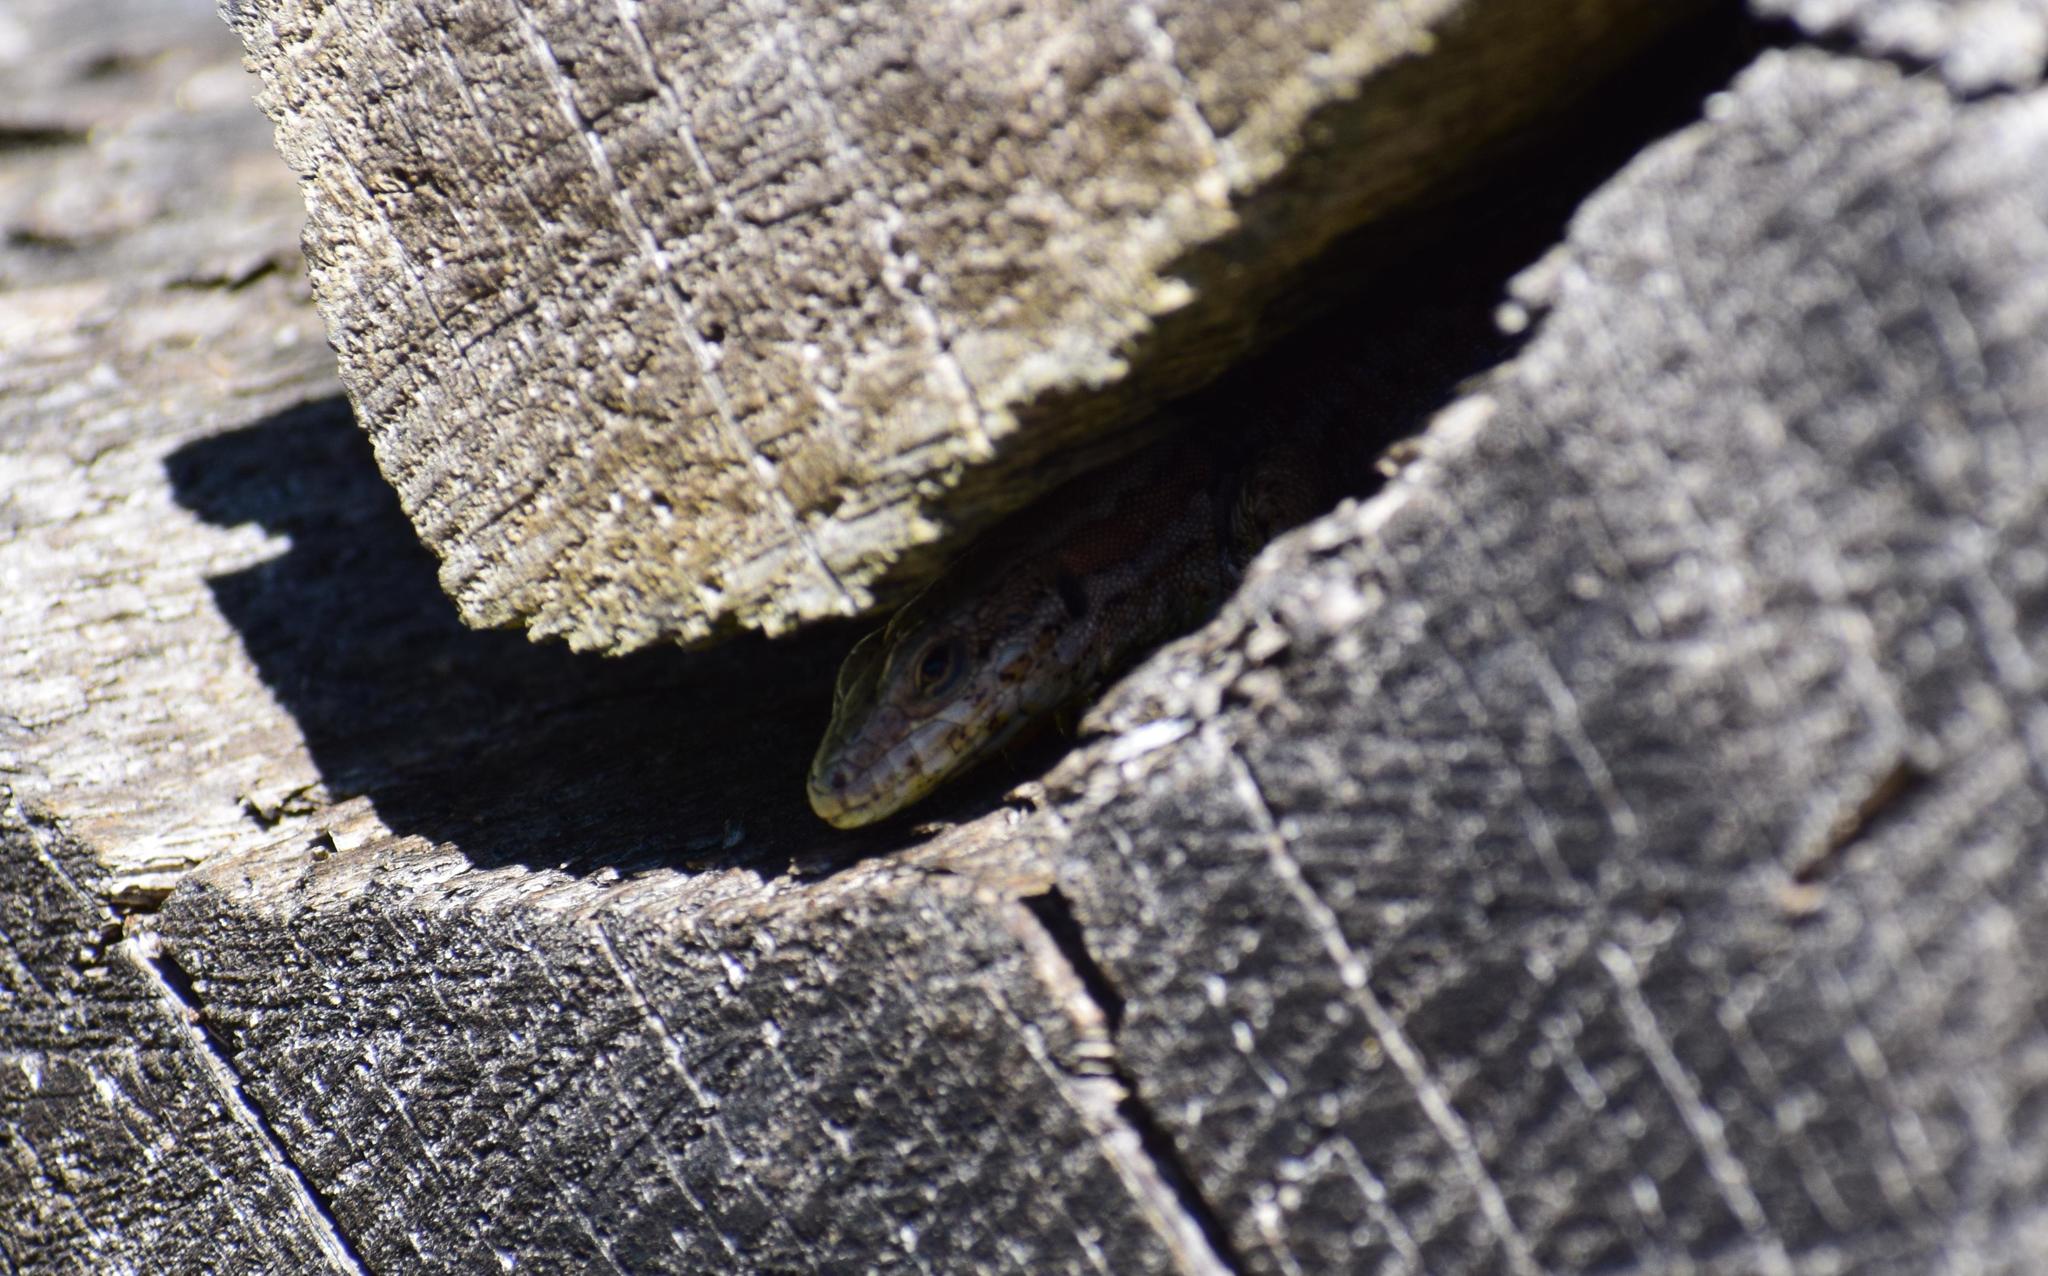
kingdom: Animalia
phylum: Chordata
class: Squamata
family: Lacertidae
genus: Podarcis
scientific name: Podarcis muralis
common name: Common wall lizard
